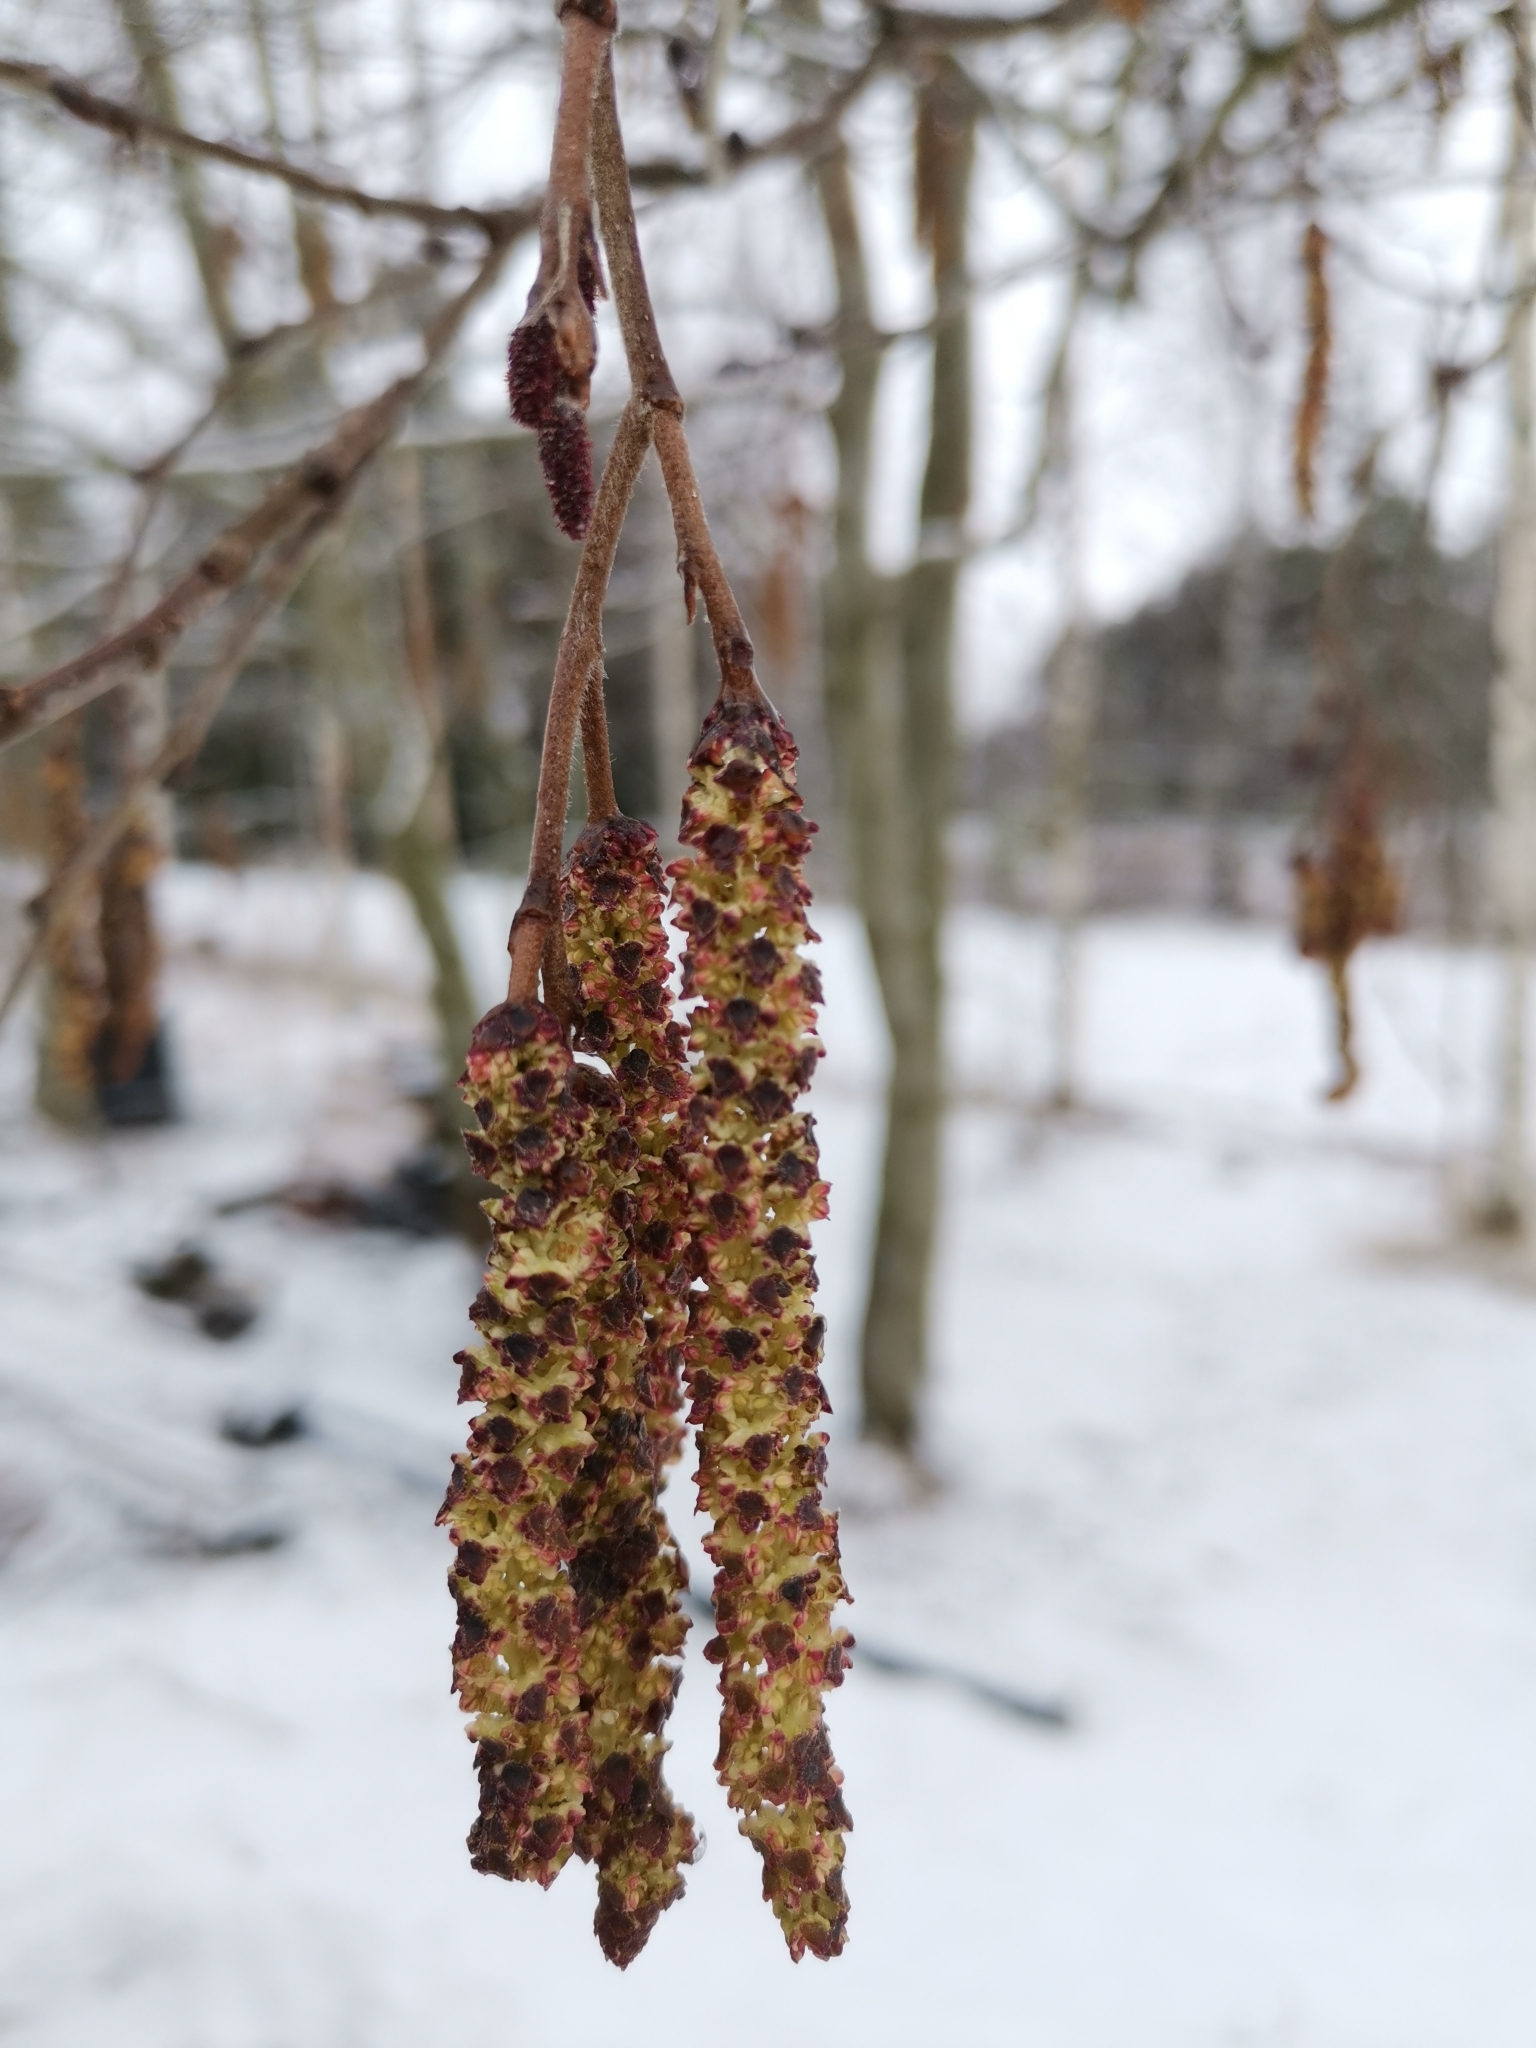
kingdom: Plantae
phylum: Tracheophyta
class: Magnoliopsida
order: Fagales
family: Betulaceae
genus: Alnus
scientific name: Alnus incana
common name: Grey alder
